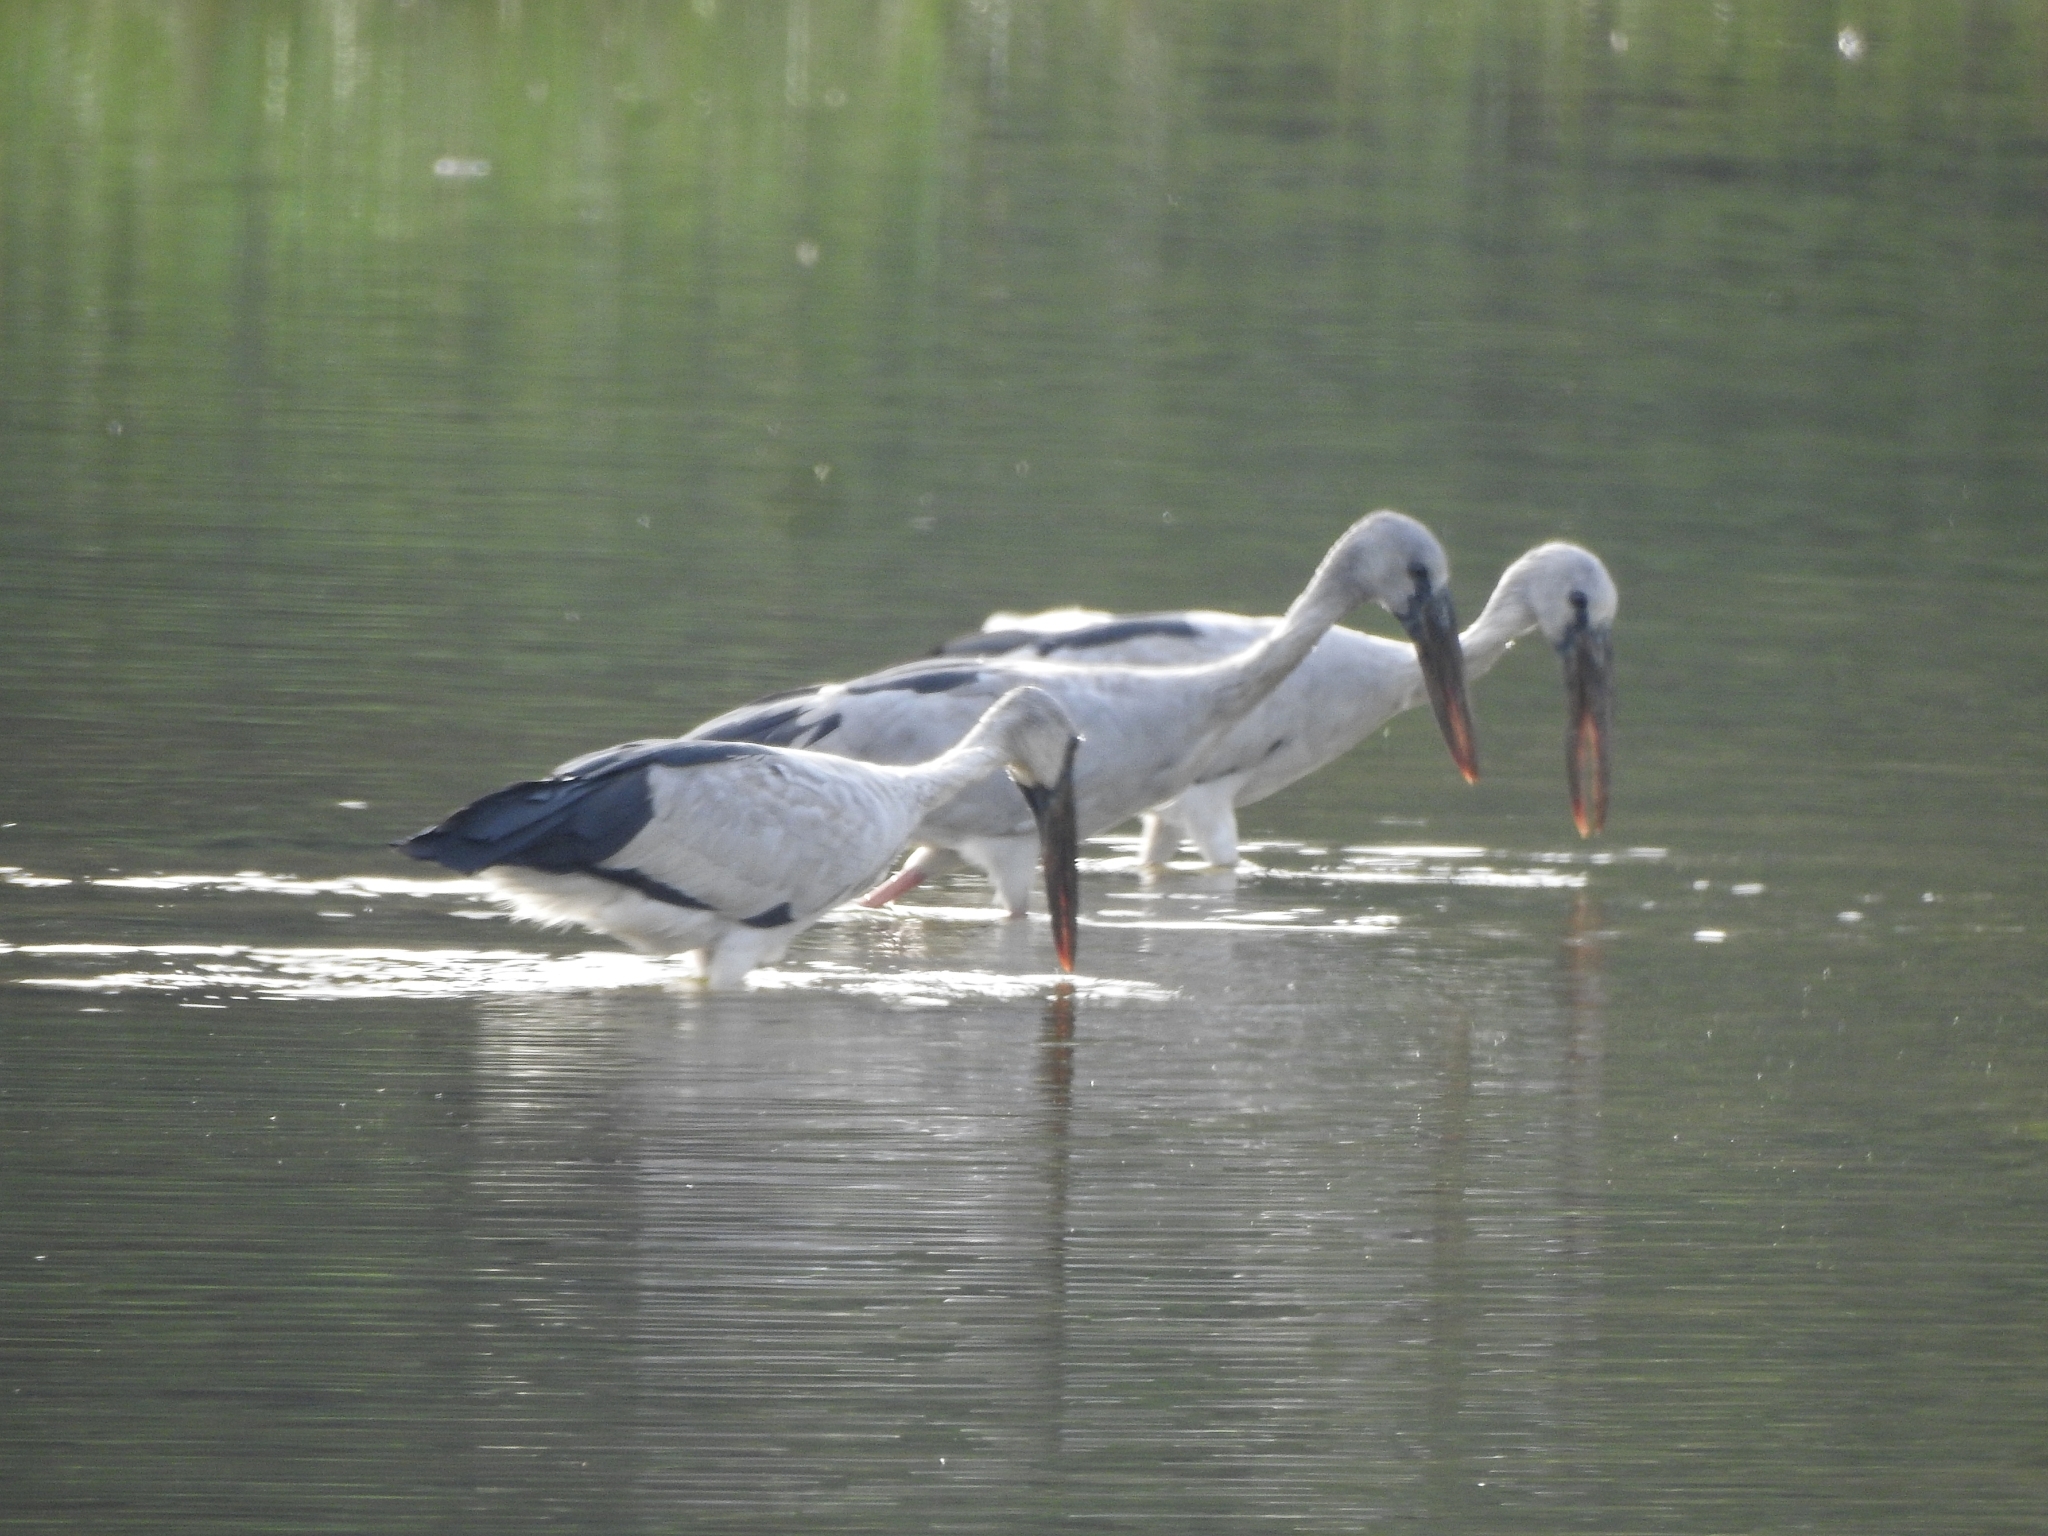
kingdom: Animalia
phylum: Chordata
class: Aves
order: Ciconiiformes
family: Ciconiidae
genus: Anastomus
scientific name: Anastomus oscitans
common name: Asian openbill
